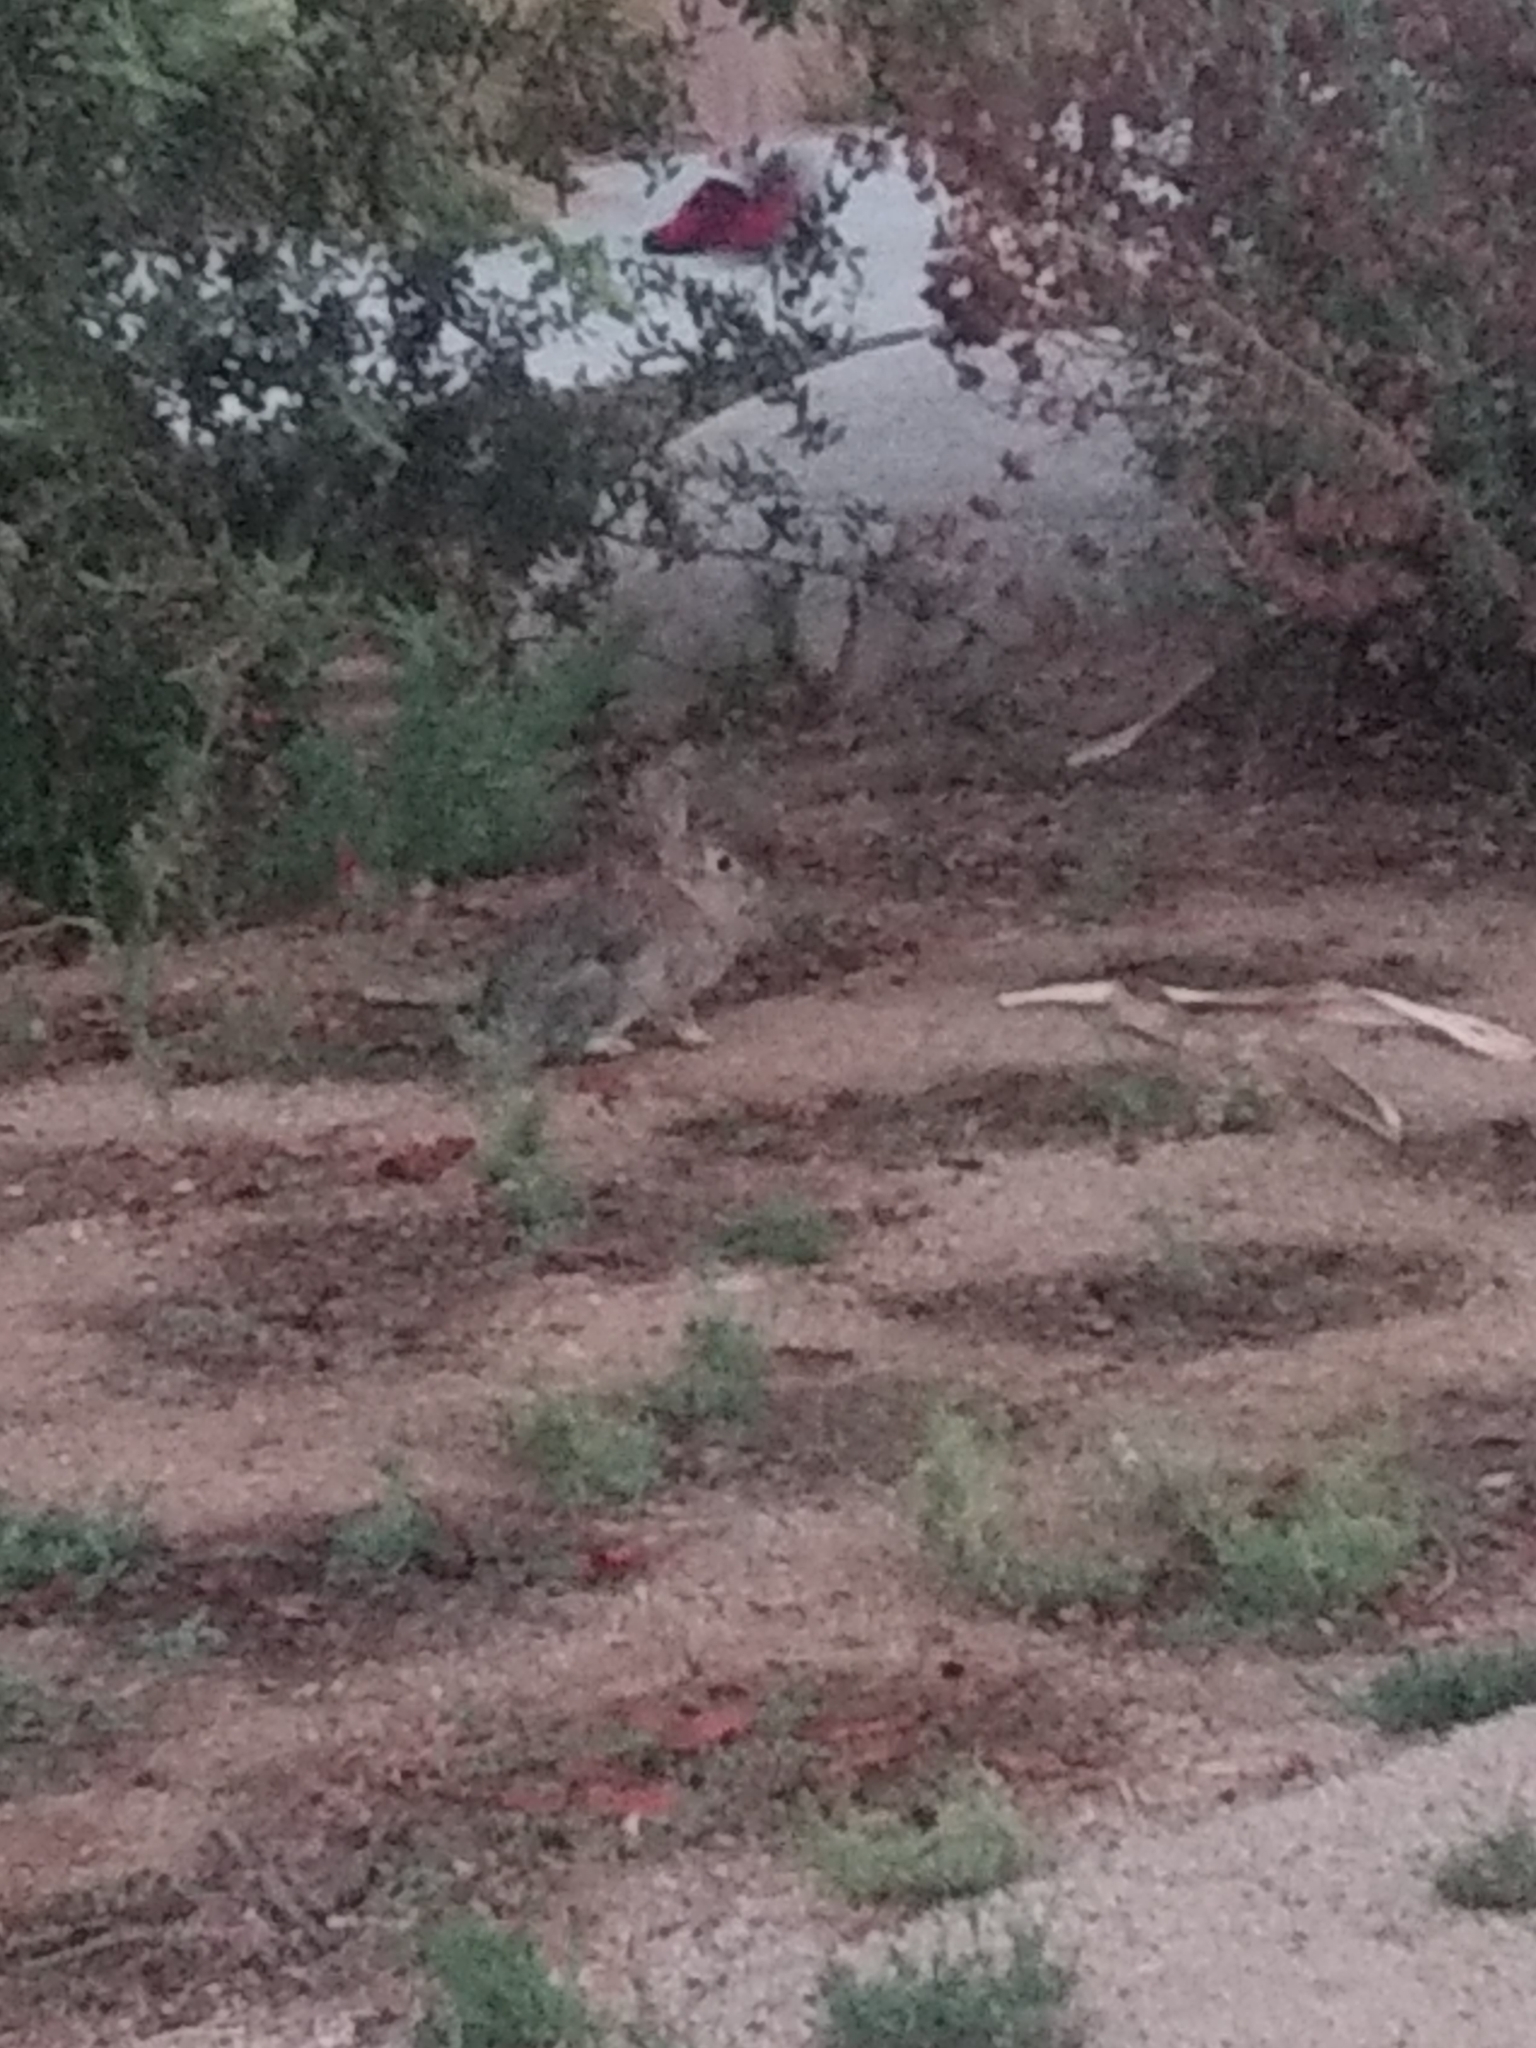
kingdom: Animalia
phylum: Chordata
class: Mammalia
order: Lagomorpha
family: Leporidae
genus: Sylvilagus
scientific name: Sylvilagus audubonii
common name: Desert cottontail
